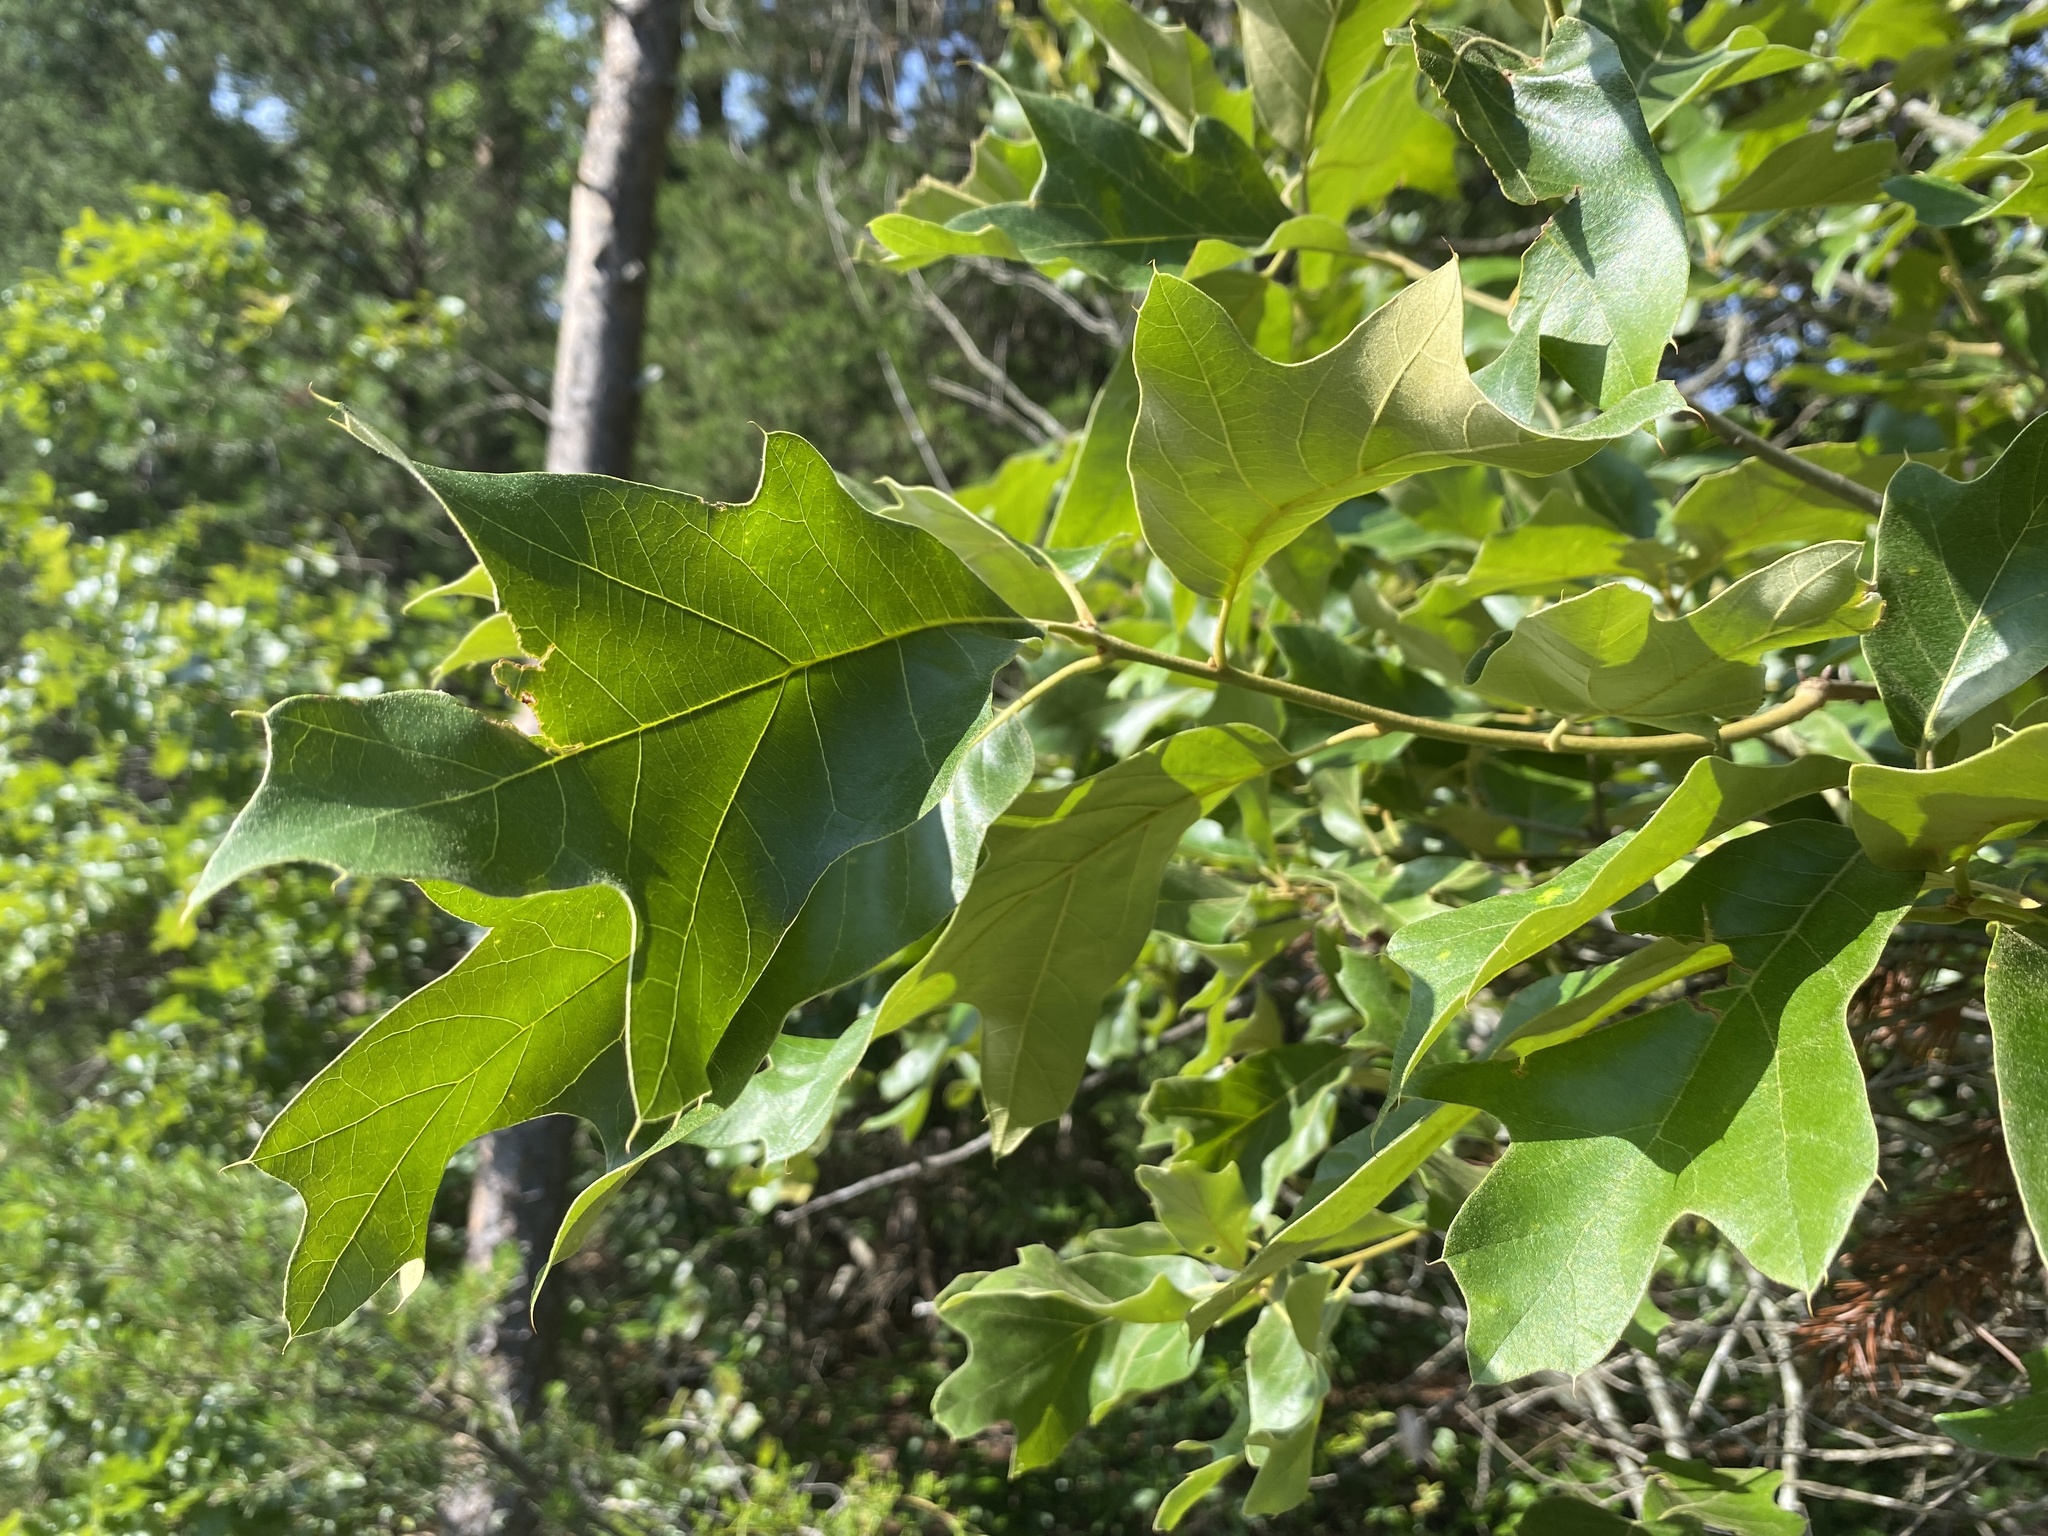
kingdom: Plantae
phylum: Tracheophyta
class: Magnoliopsida
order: Fagales
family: Fagaceae
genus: Quercus
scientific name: Quercus falcata
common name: Southern red oak
